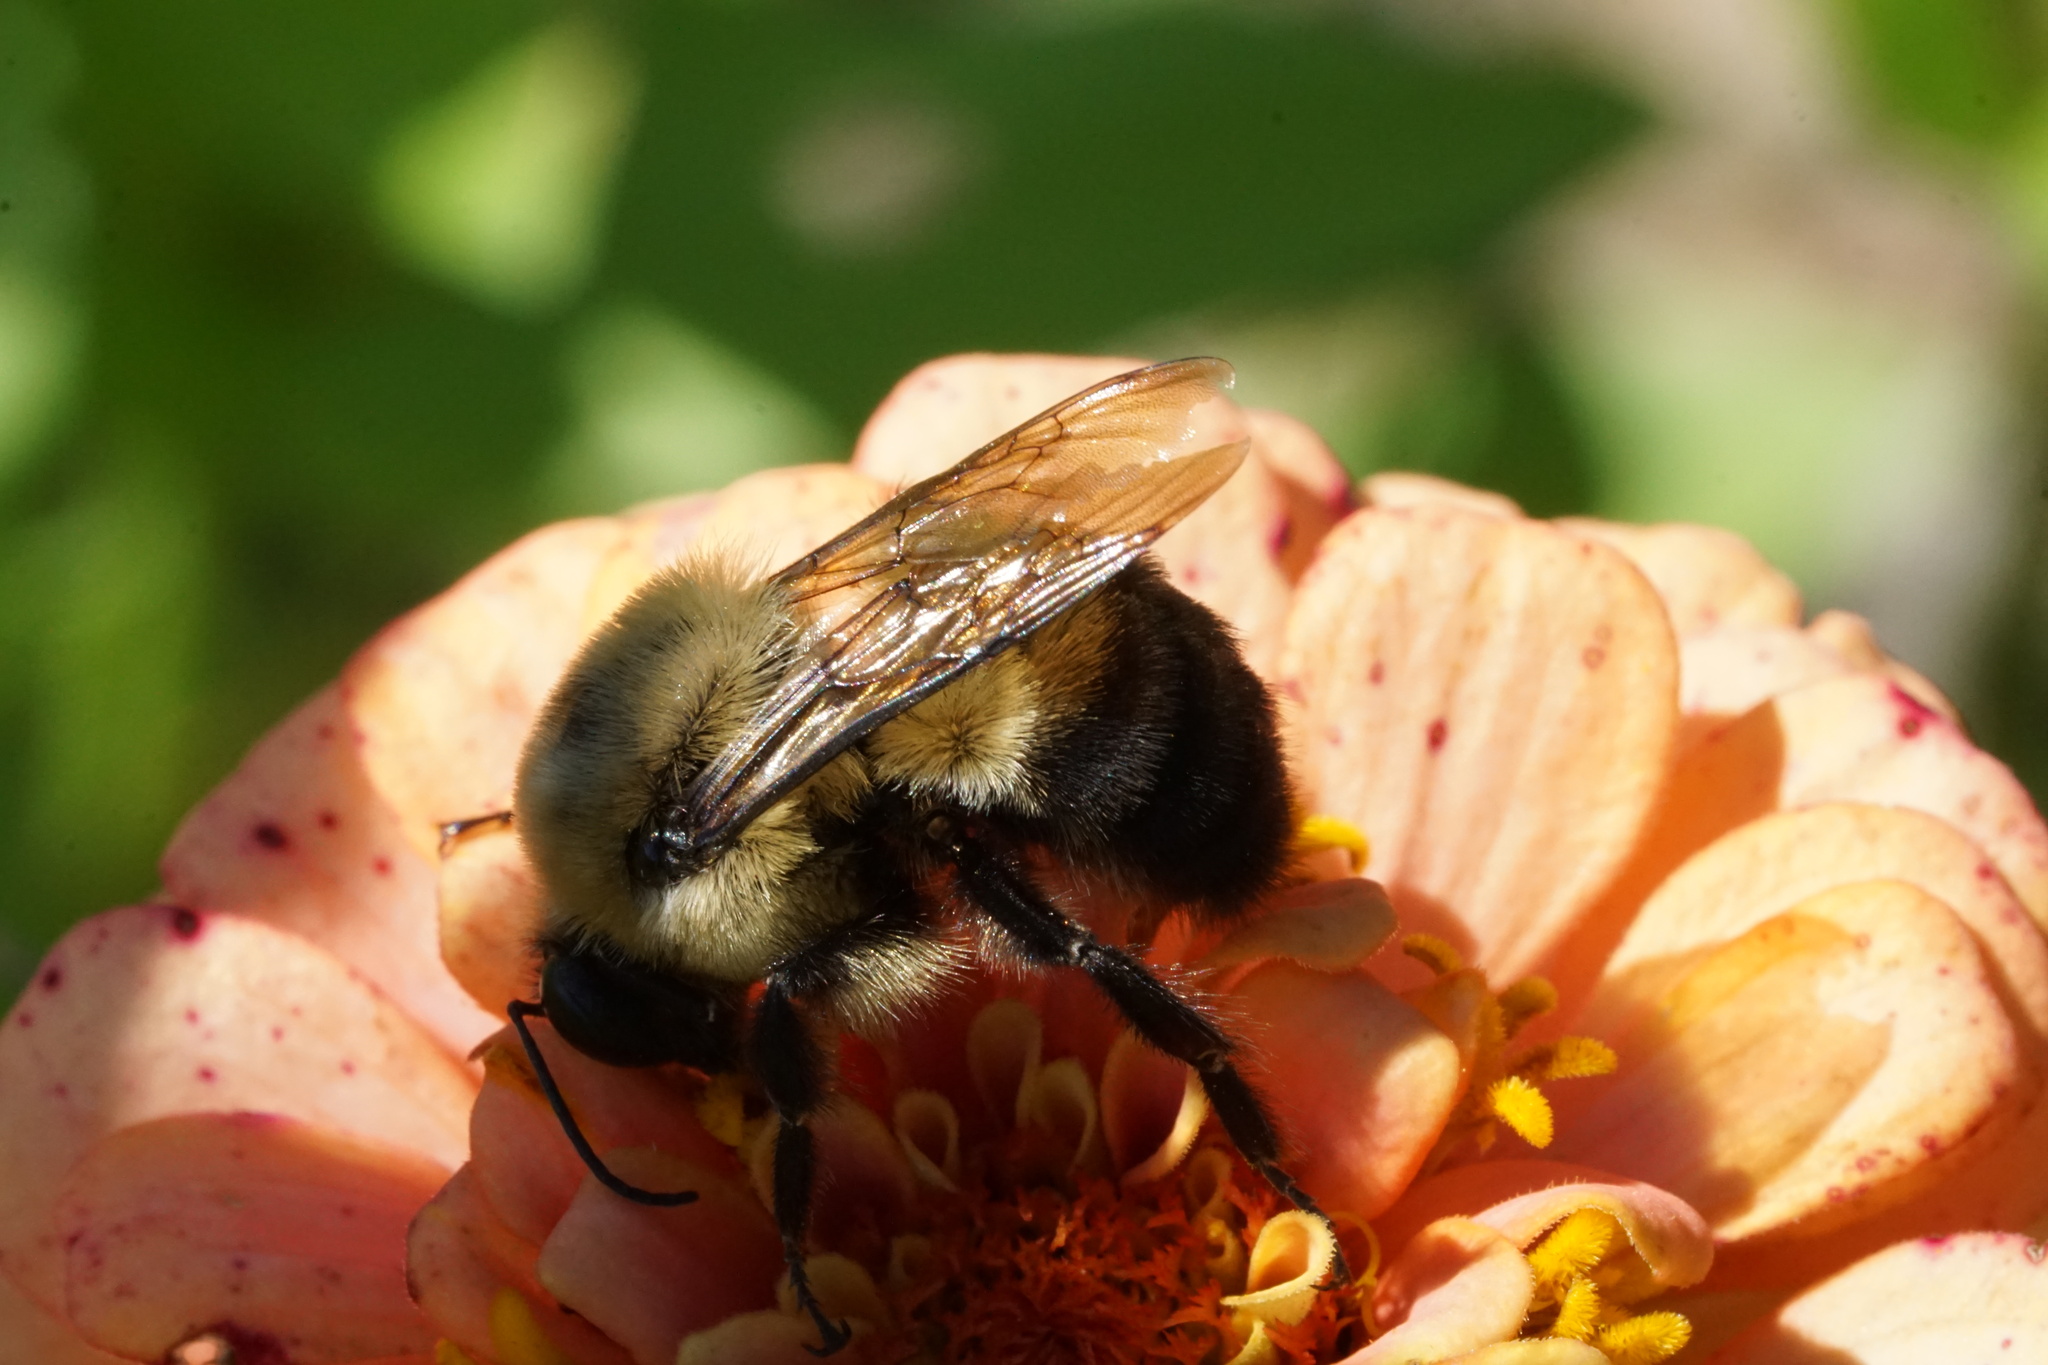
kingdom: Animalia
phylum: Arthropoda
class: Insecta
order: Hymenoptera
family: Apidae
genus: Bombus
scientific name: Bombus griseocollis
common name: Brown-belted bumble bee
